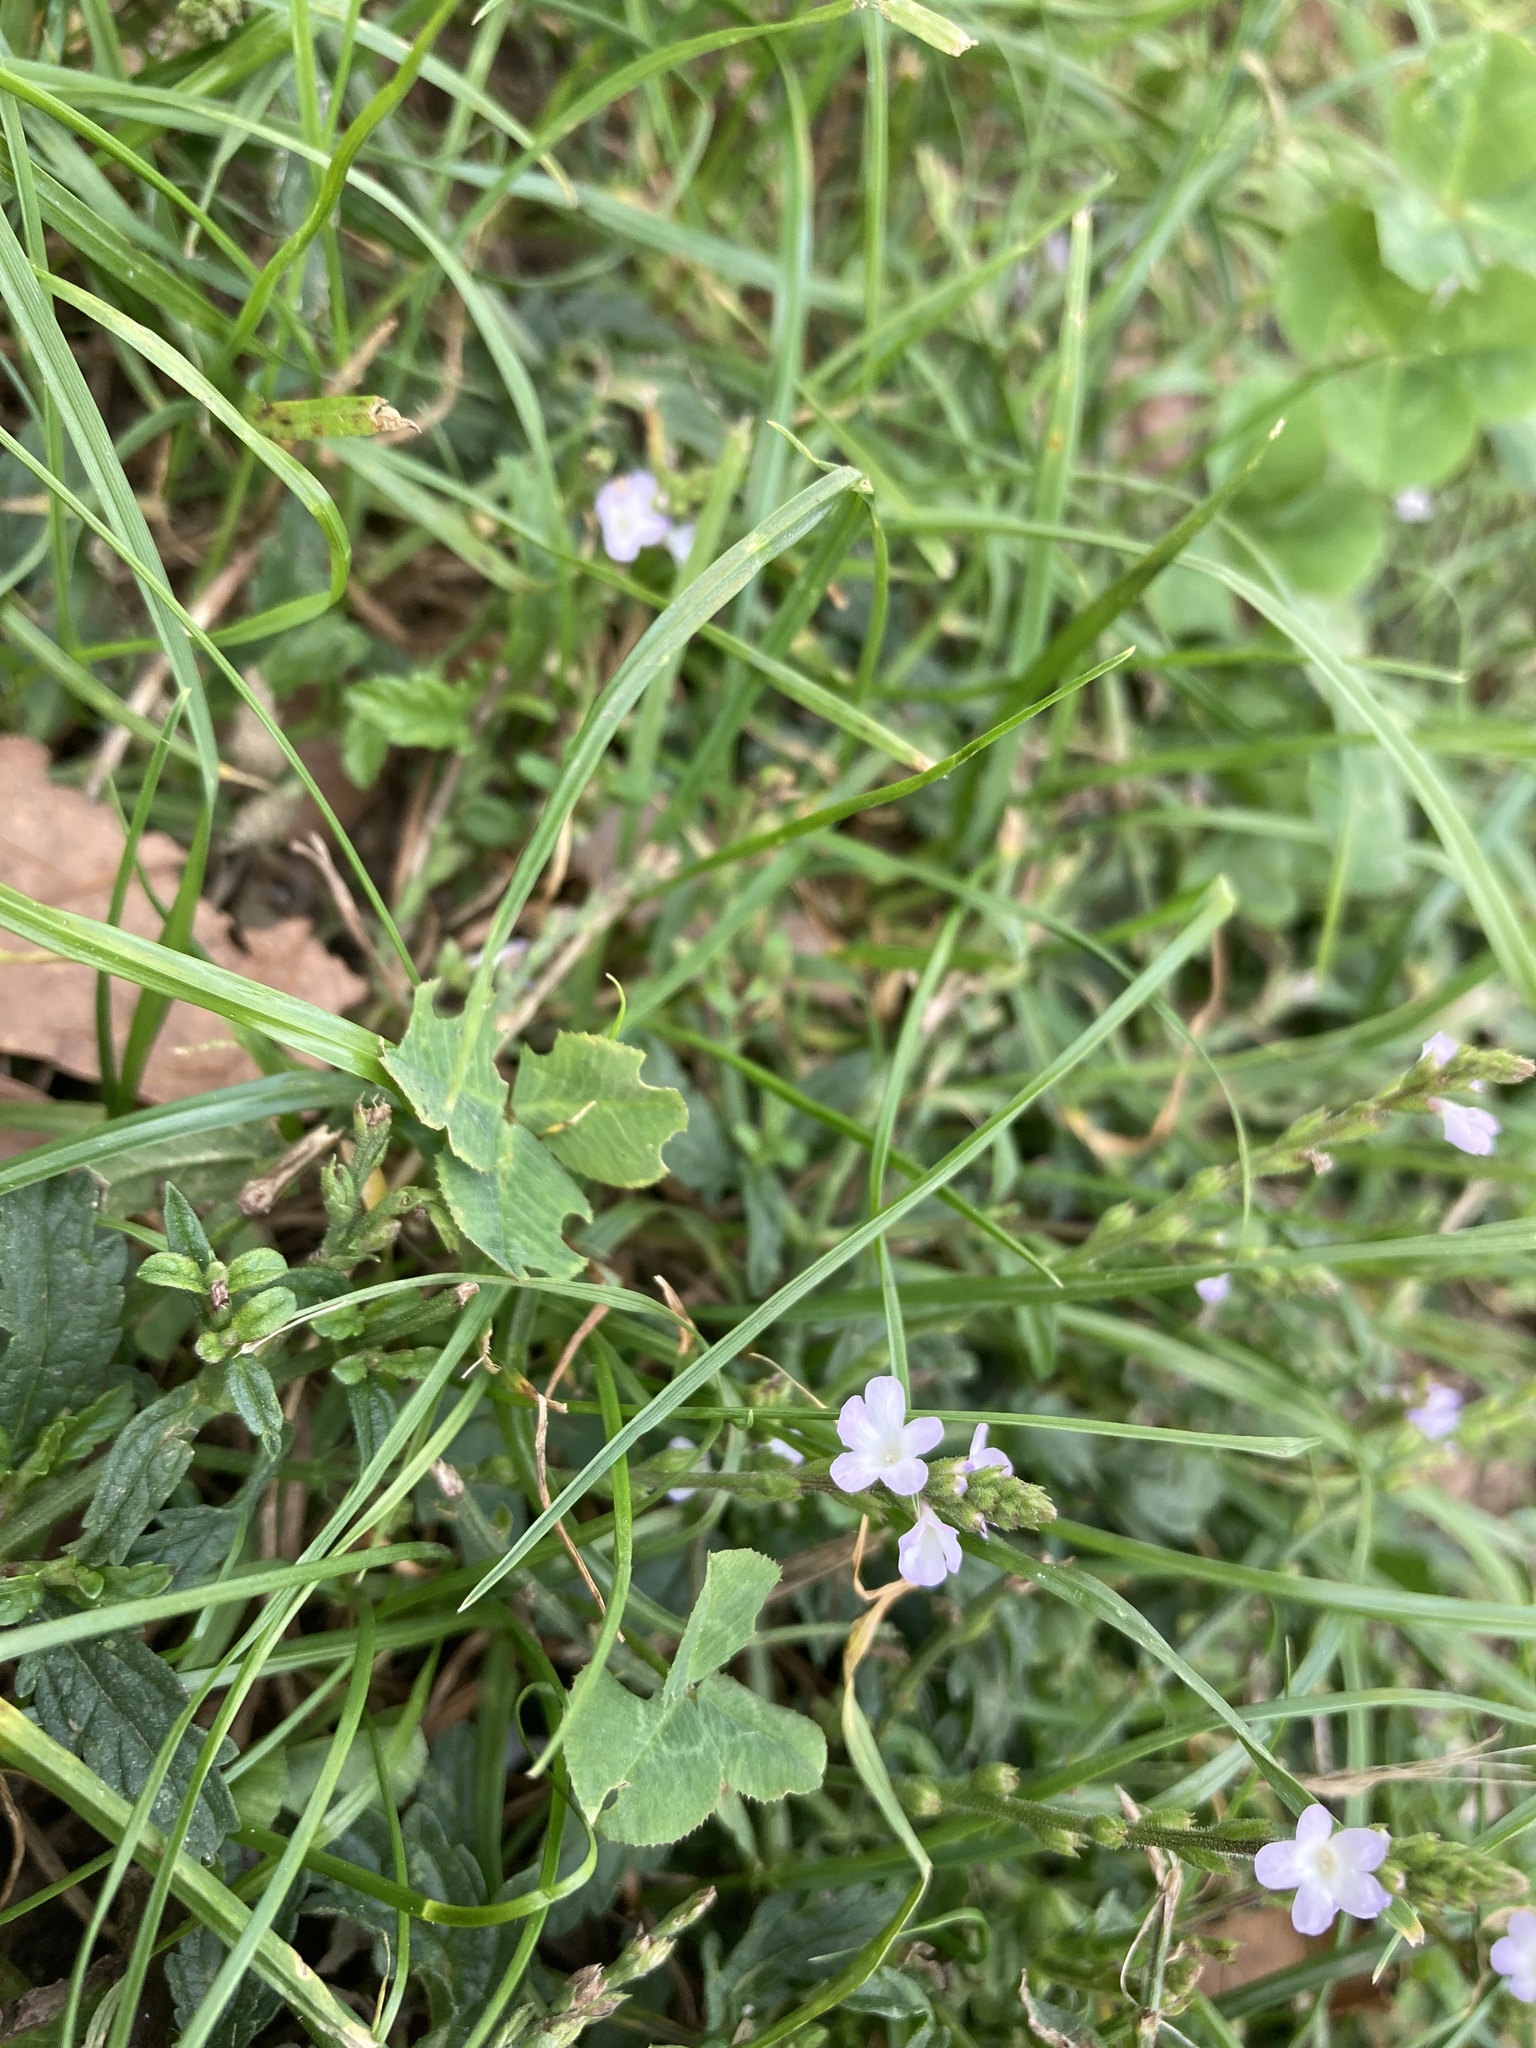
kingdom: Plantae
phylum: Tracheophyta
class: Magnoliopsida
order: Lamiales
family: Verbenaceae
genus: Verbena
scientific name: Verbena officinalis
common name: Vervain
